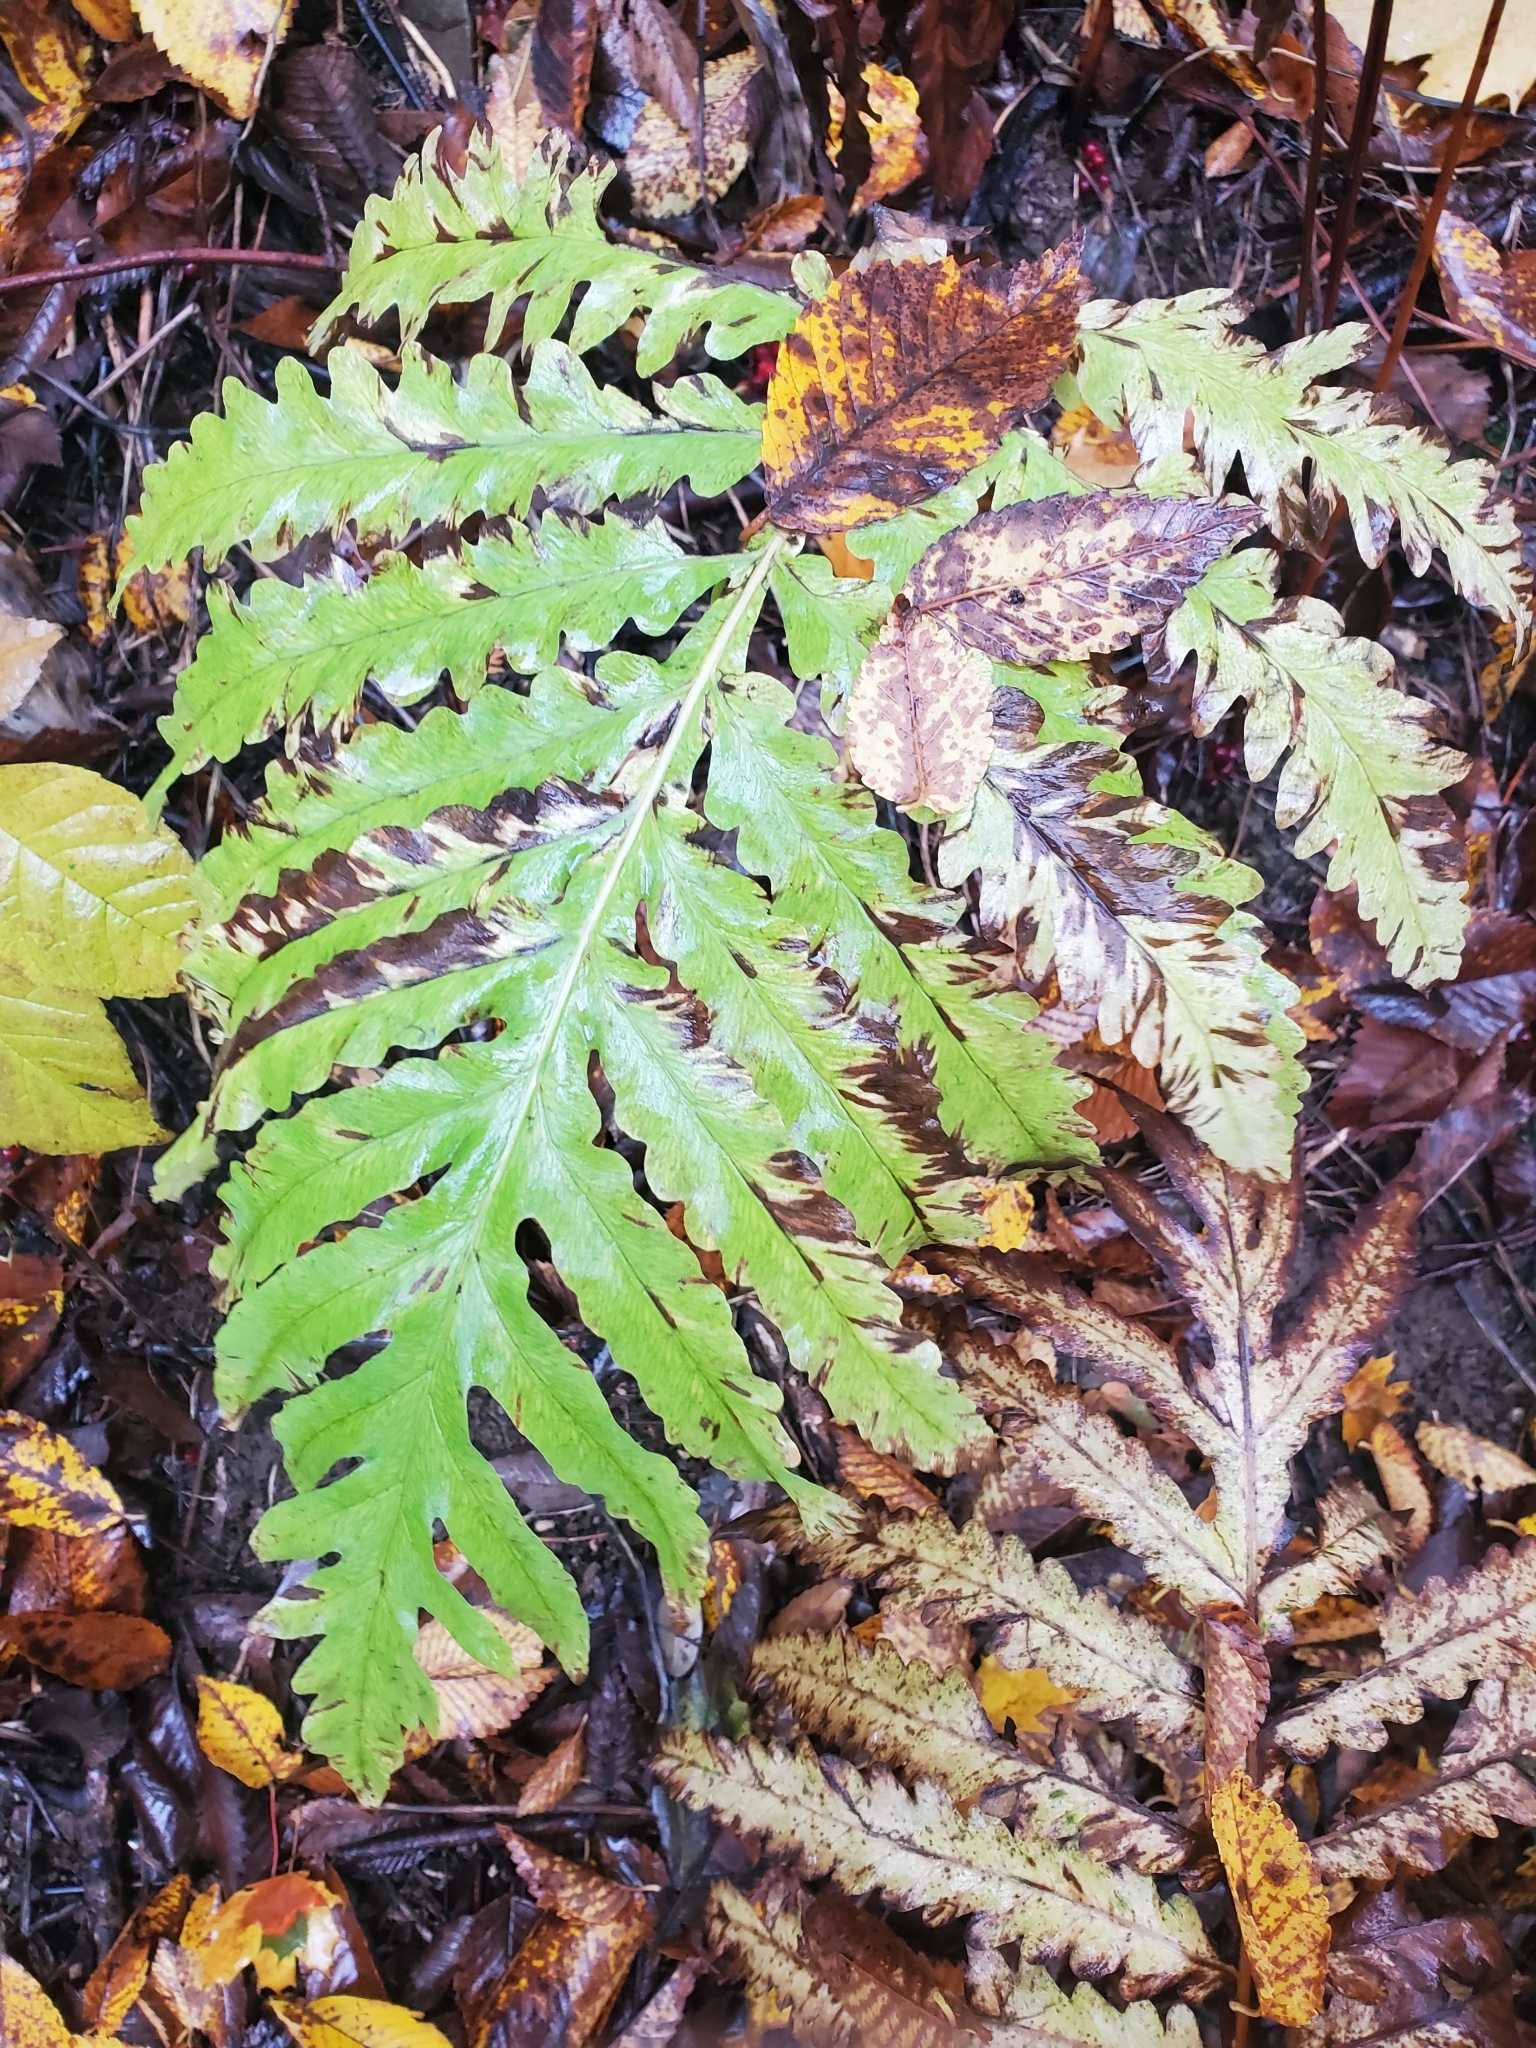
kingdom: Plantae
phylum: Tracheophyta
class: Polypodiopsida
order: Polypodiales
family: Onocleaceae
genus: Onoclea
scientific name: Onoclea sensibilis
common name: Sensitive fern
